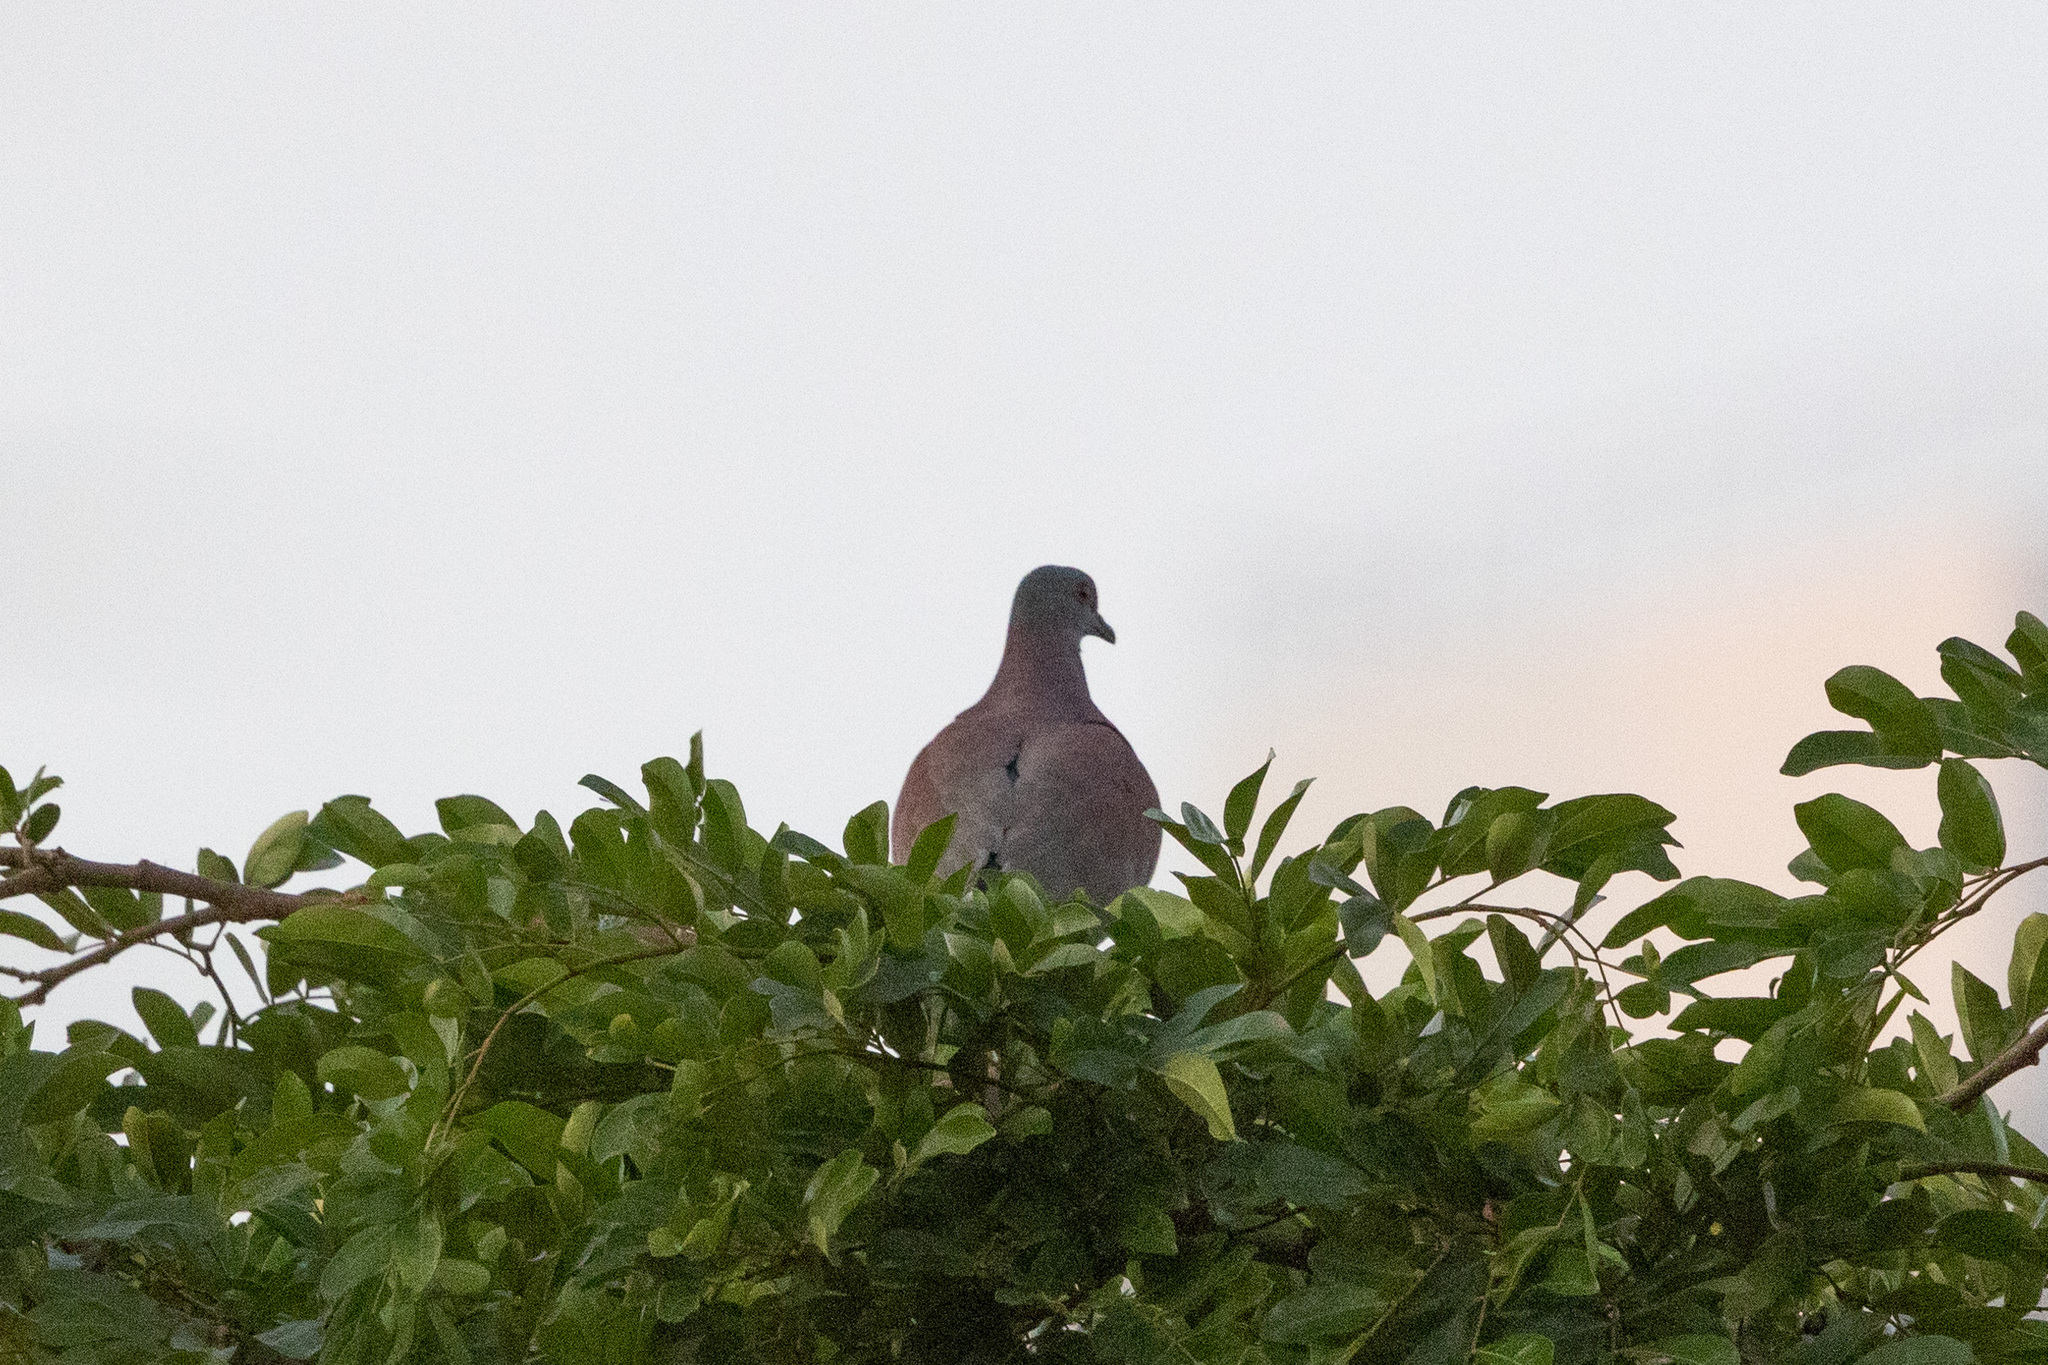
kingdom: Animalia
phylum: Chordata
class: Aves
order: Columbiformes
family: Columbidae
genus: Patagioenas
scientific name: Patagioenas cayennensis
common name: Pale-vented pigeon
